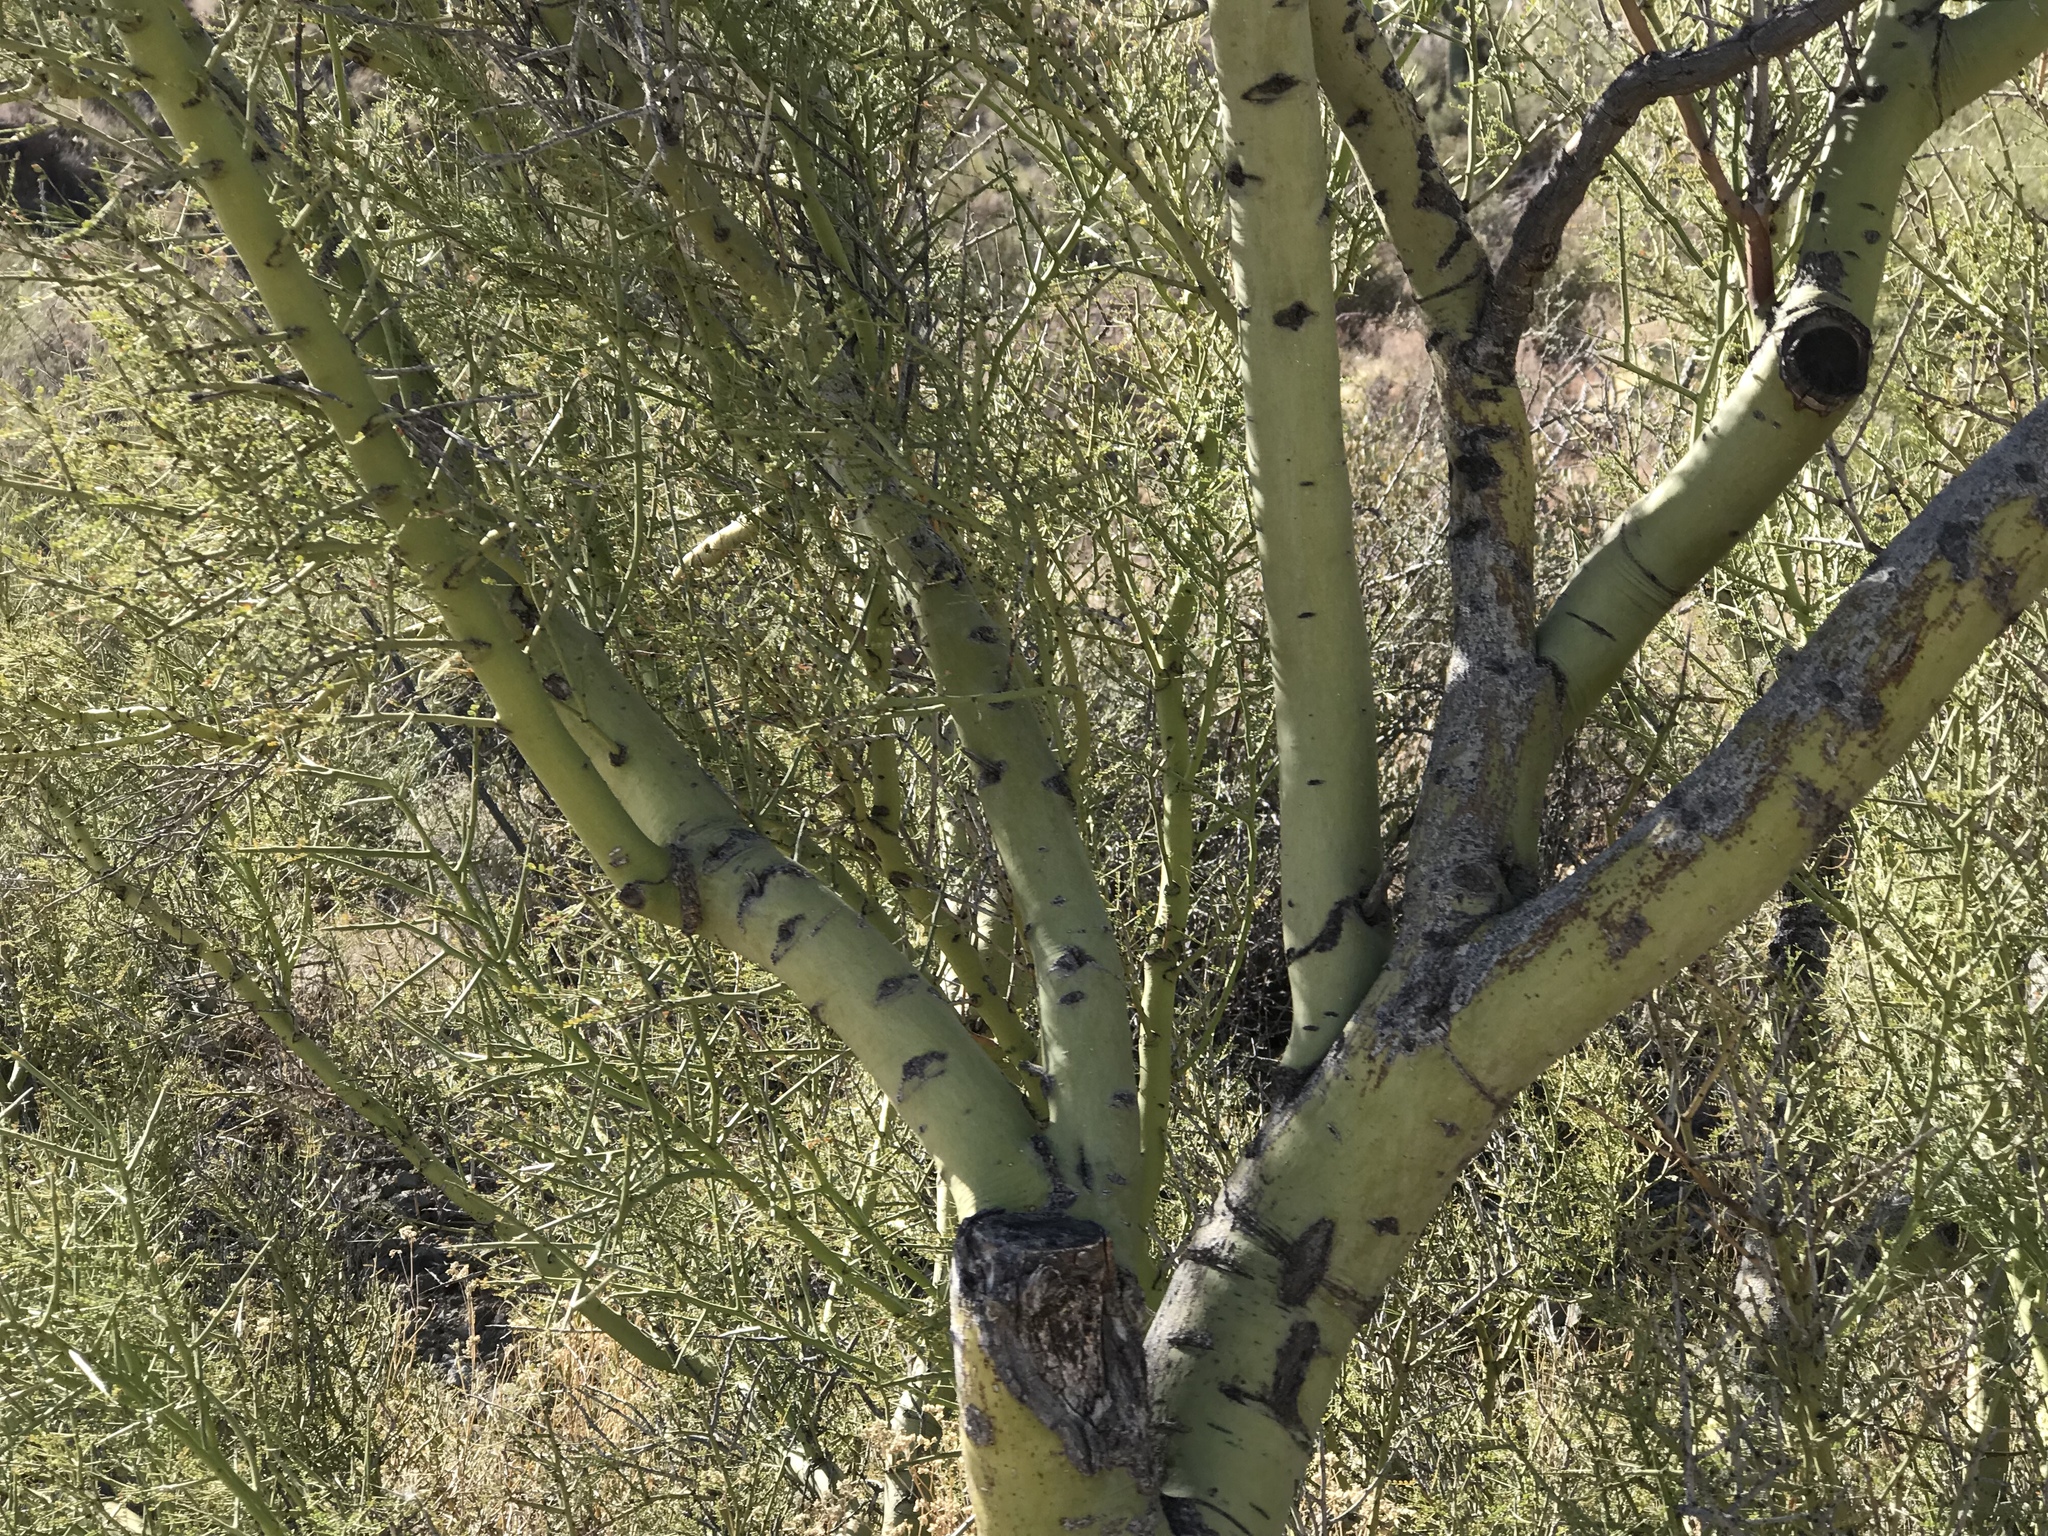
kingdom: Plantae
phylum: Tracheophyta
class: Magnoliopsida
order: Fabales
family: Fabaceae
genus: Parkinsonia
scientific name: Parkinsonia microphylla
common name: Yellow paloverde
